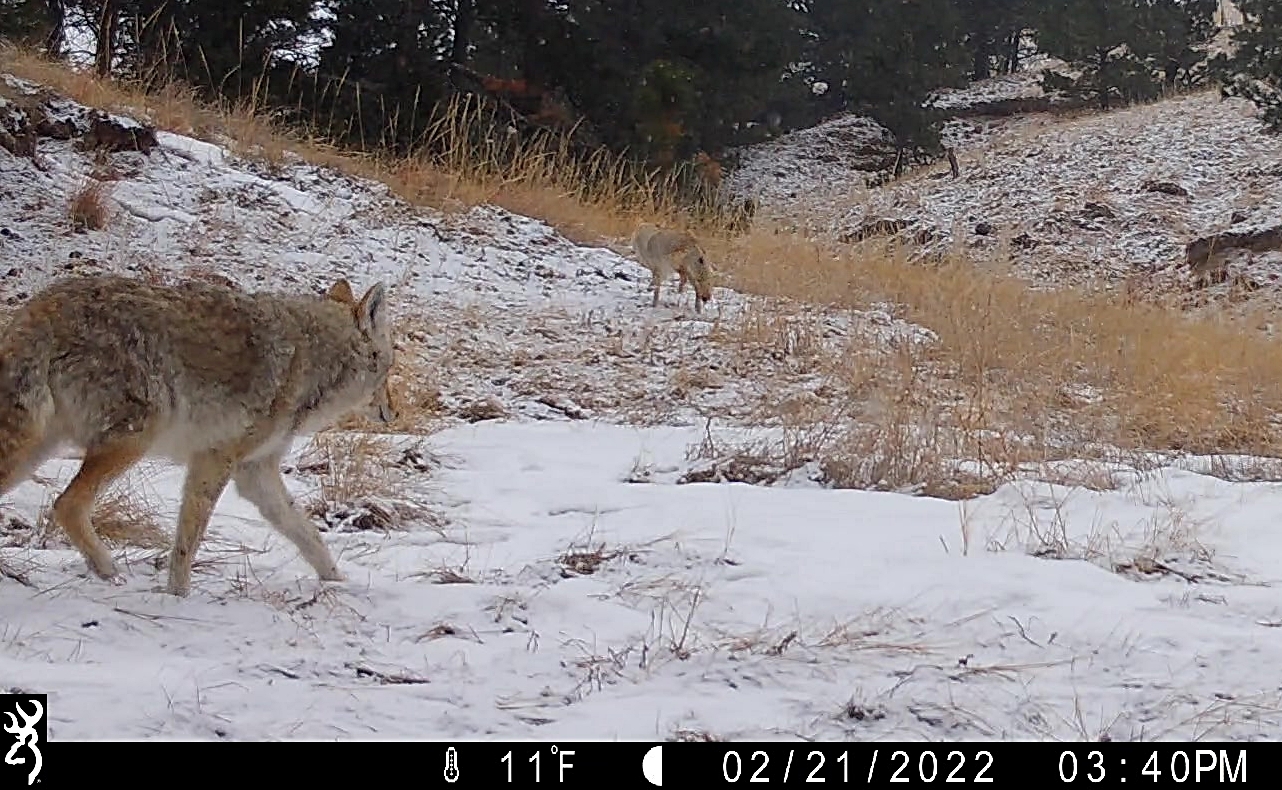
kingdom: Animalia
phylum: Chordata
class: Mammalia
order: Carnivora
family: Canidae
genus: Canis
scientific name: Canis latrans
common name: Coyote
